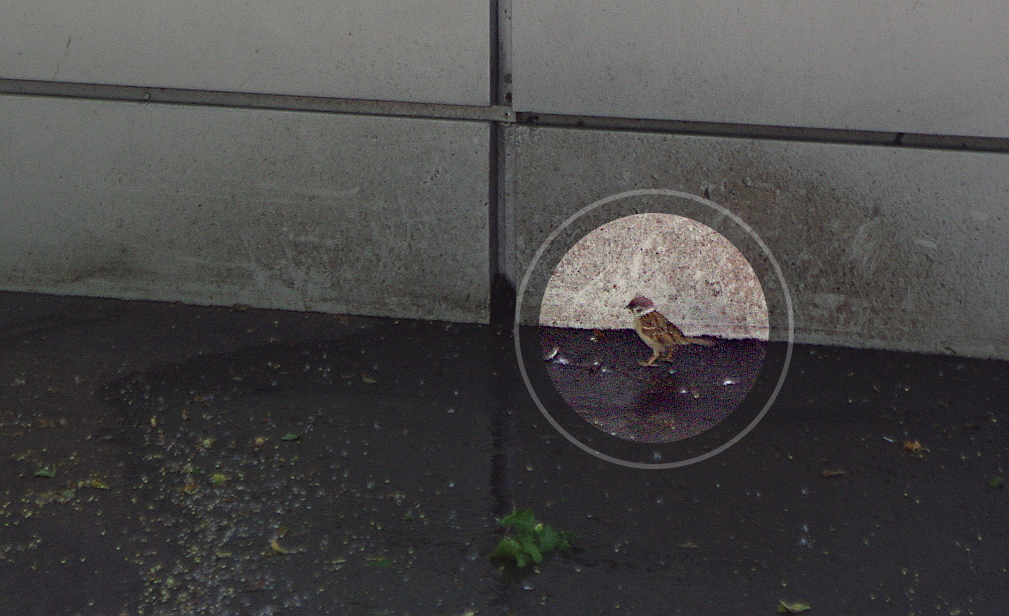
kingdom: Animalia
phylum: Chordata
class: Aves
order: Passeriformes
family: Passeridae
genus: Passer
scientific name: Passer montanus
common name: Eurasian tree sparrow
